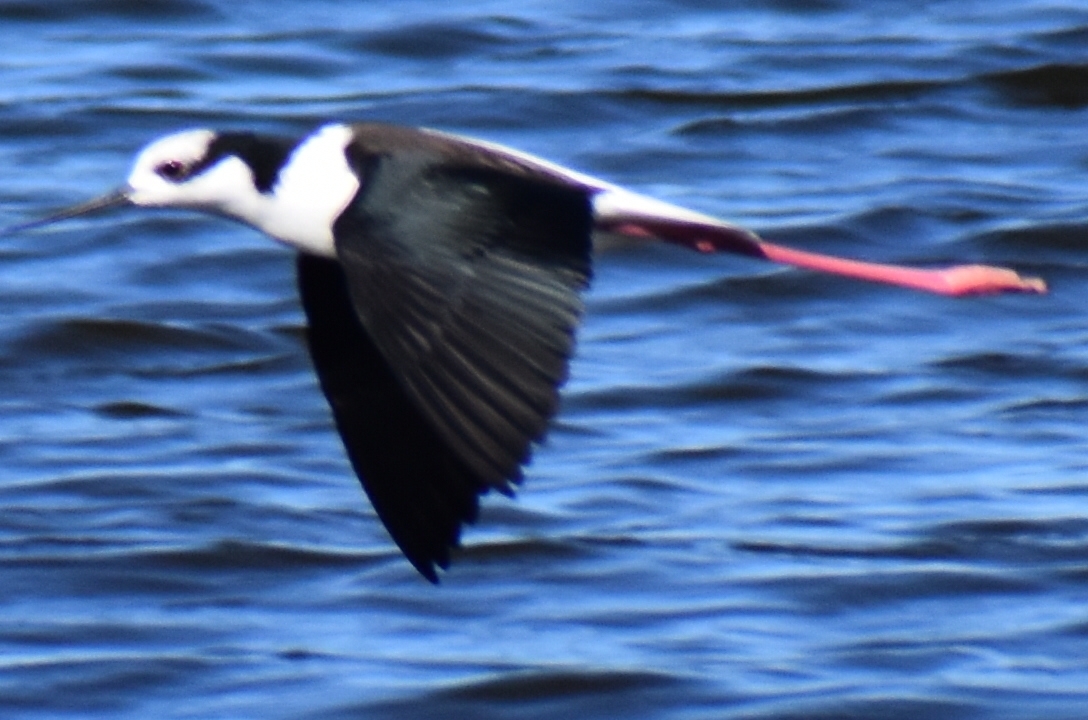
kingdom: Animalia
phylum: Chordata
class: Aves
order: Charadriiformes
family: Recurvirostridae
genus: Himantopus
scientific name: Himantopus mexicanus
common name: Black-necked stilt
